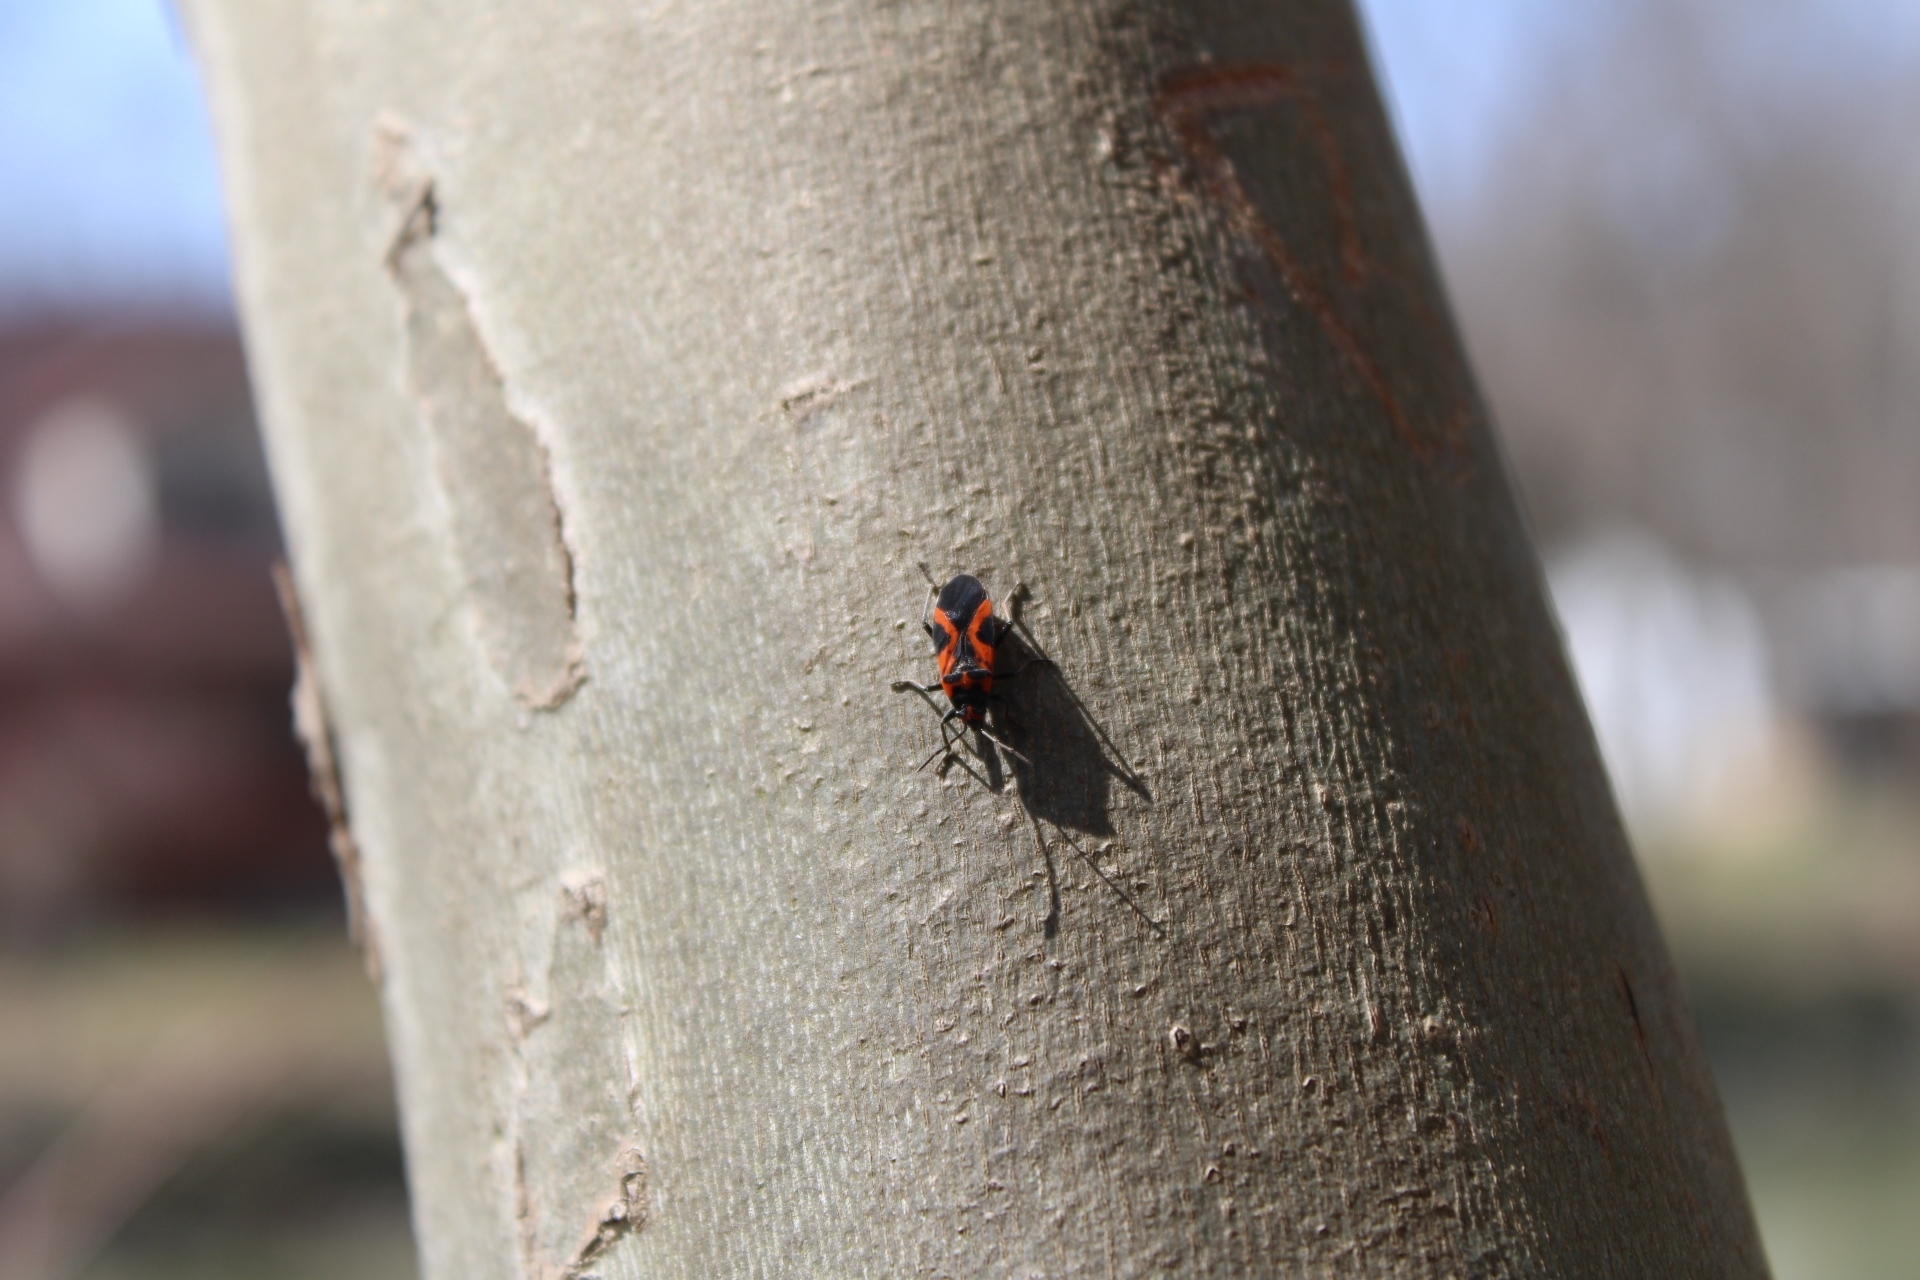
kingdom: Animalia
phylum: Arthropoda
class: Insecta
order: Hemiptera
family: Lygaeidae
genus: Lygaeus
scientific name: Lygaeus turcicus
